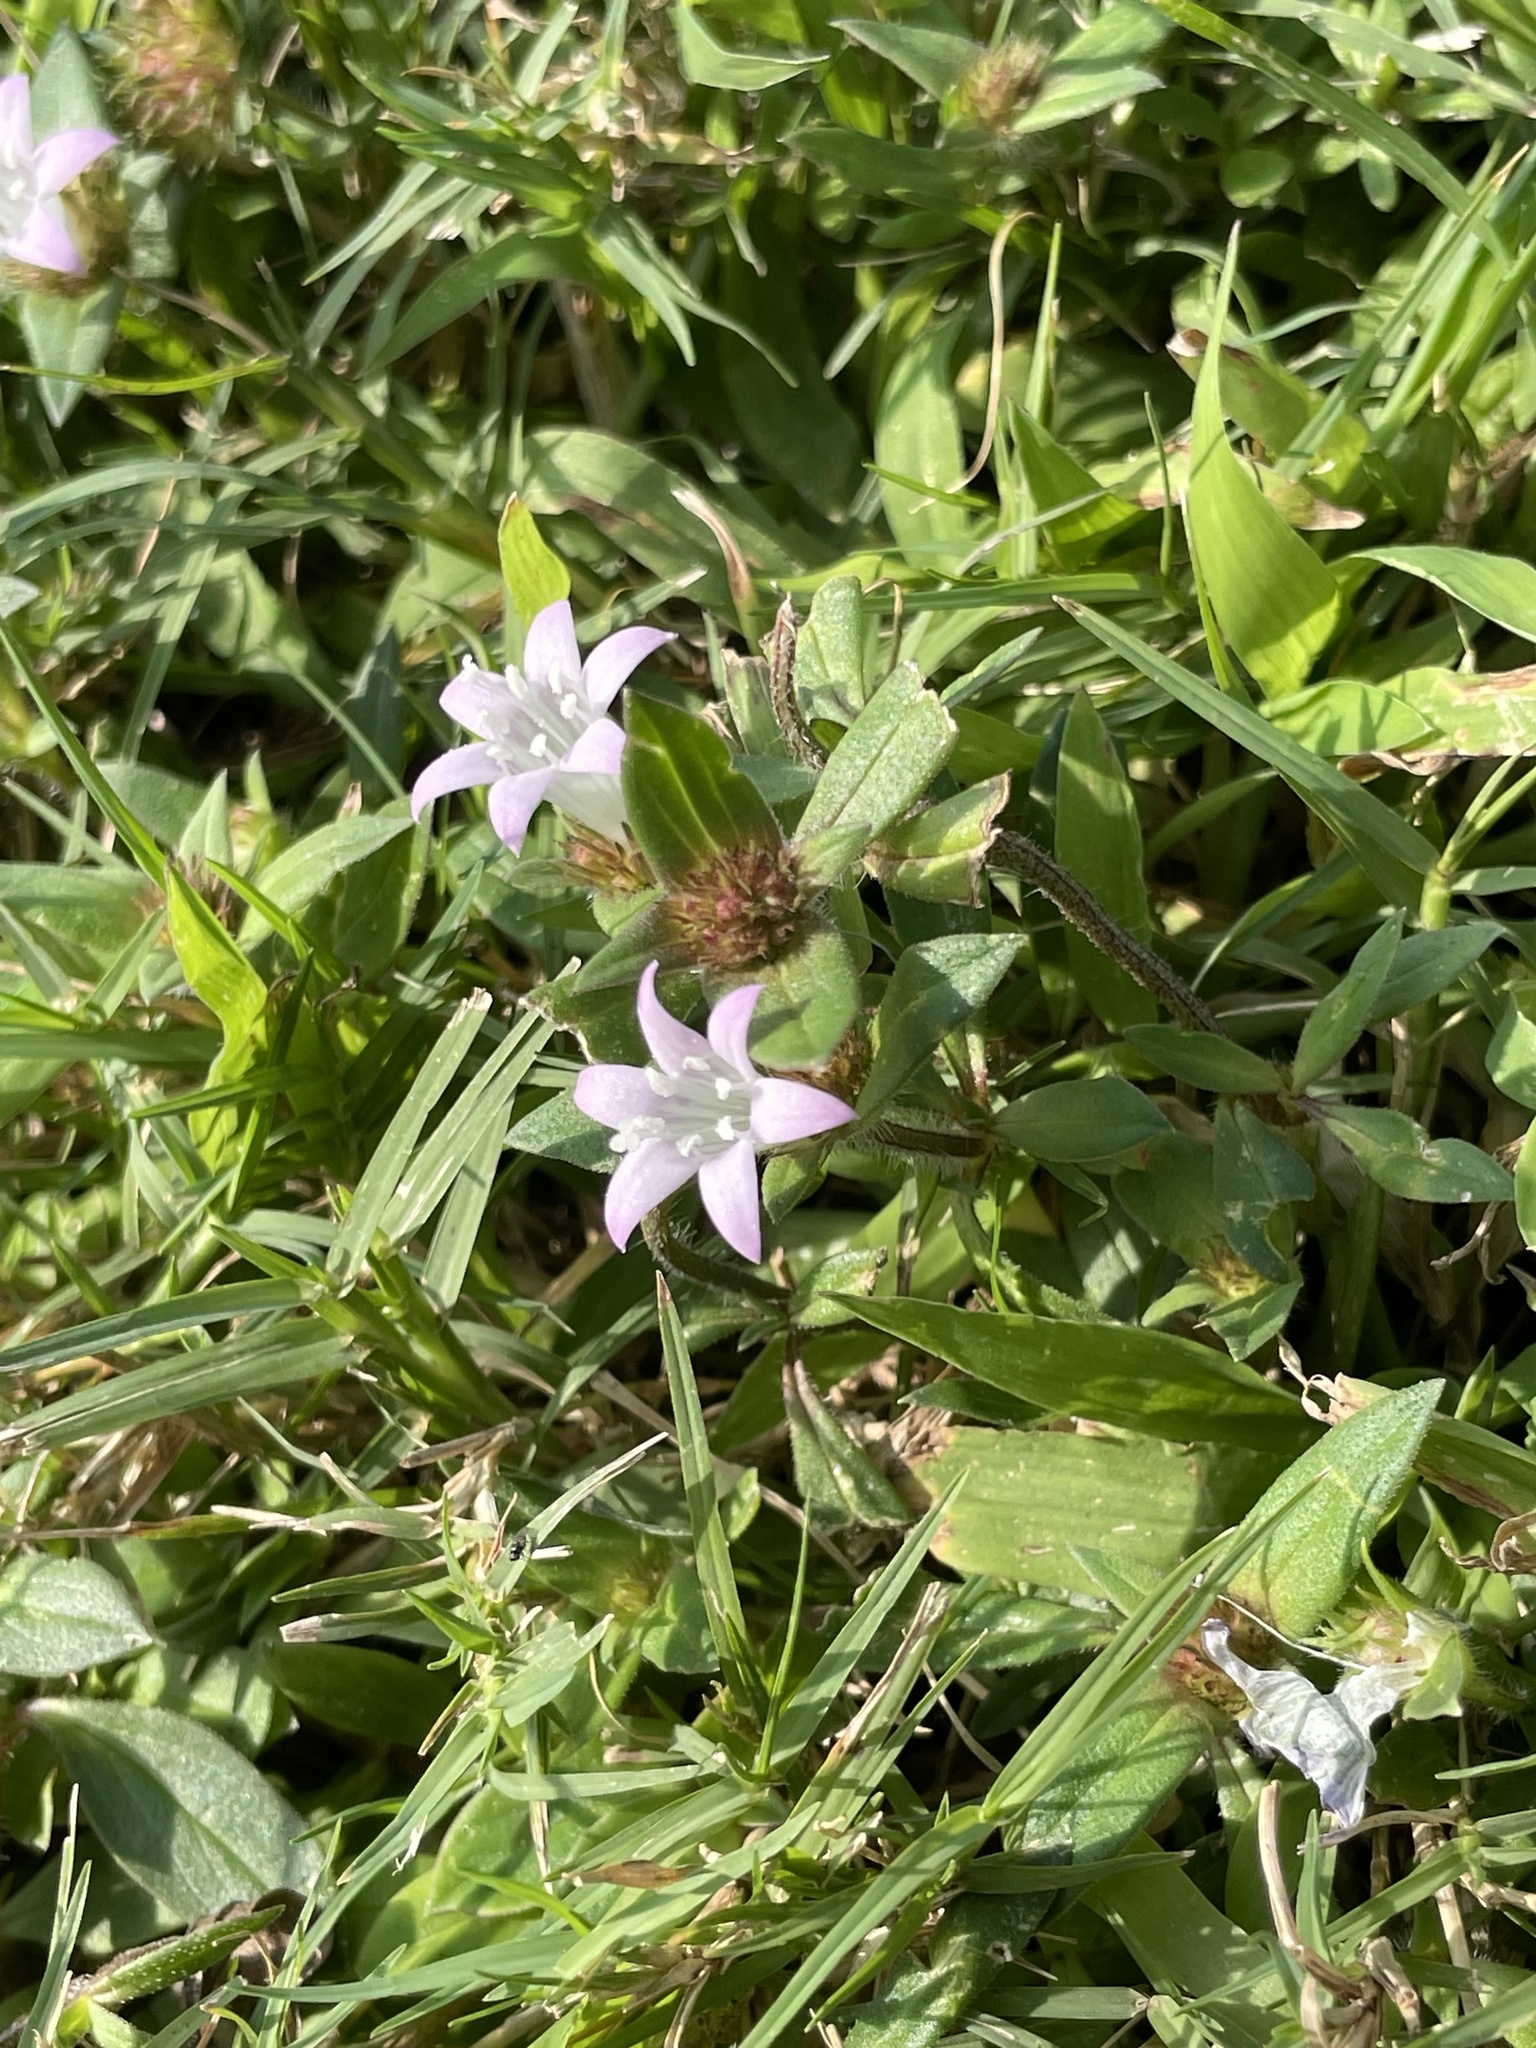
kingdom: Plantae
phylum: Tracheophyta
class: Magnoliopsida
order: Gentianales
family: Rubiaceae
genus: Richardia
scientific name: Richardia grandiflora
